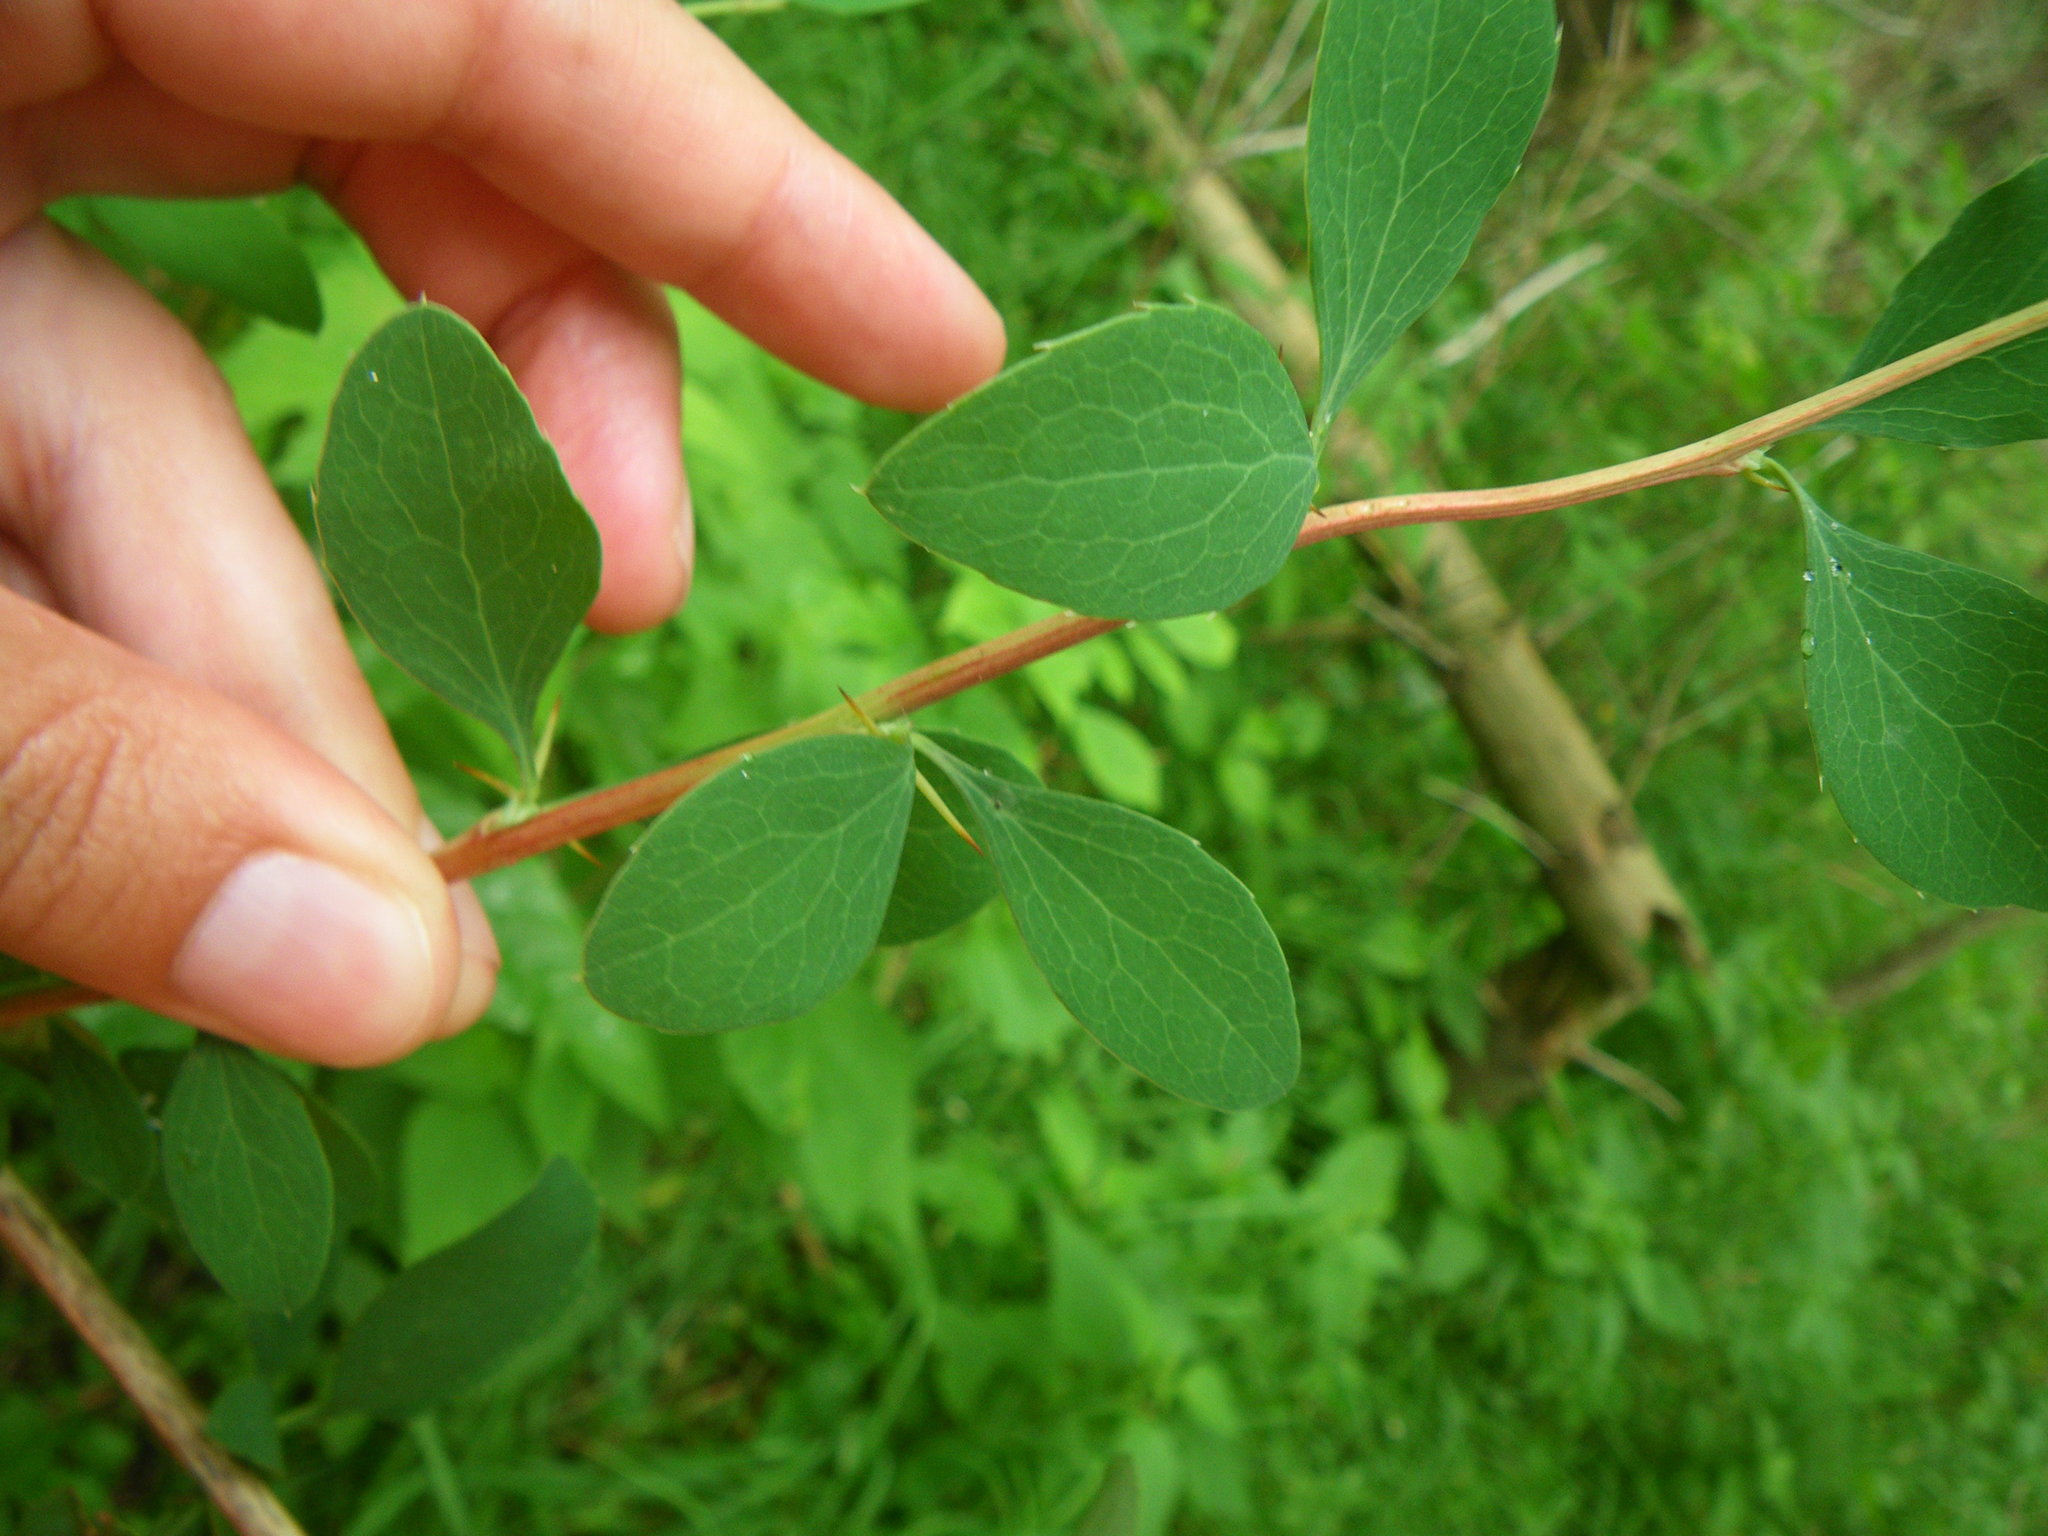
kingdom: Plantae
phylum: Tracheophyta
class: Magnoliopsida
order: Ranunculales
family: Berberidaceae
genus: Berberis
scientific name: Berberis vulgaris
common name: Barberry
